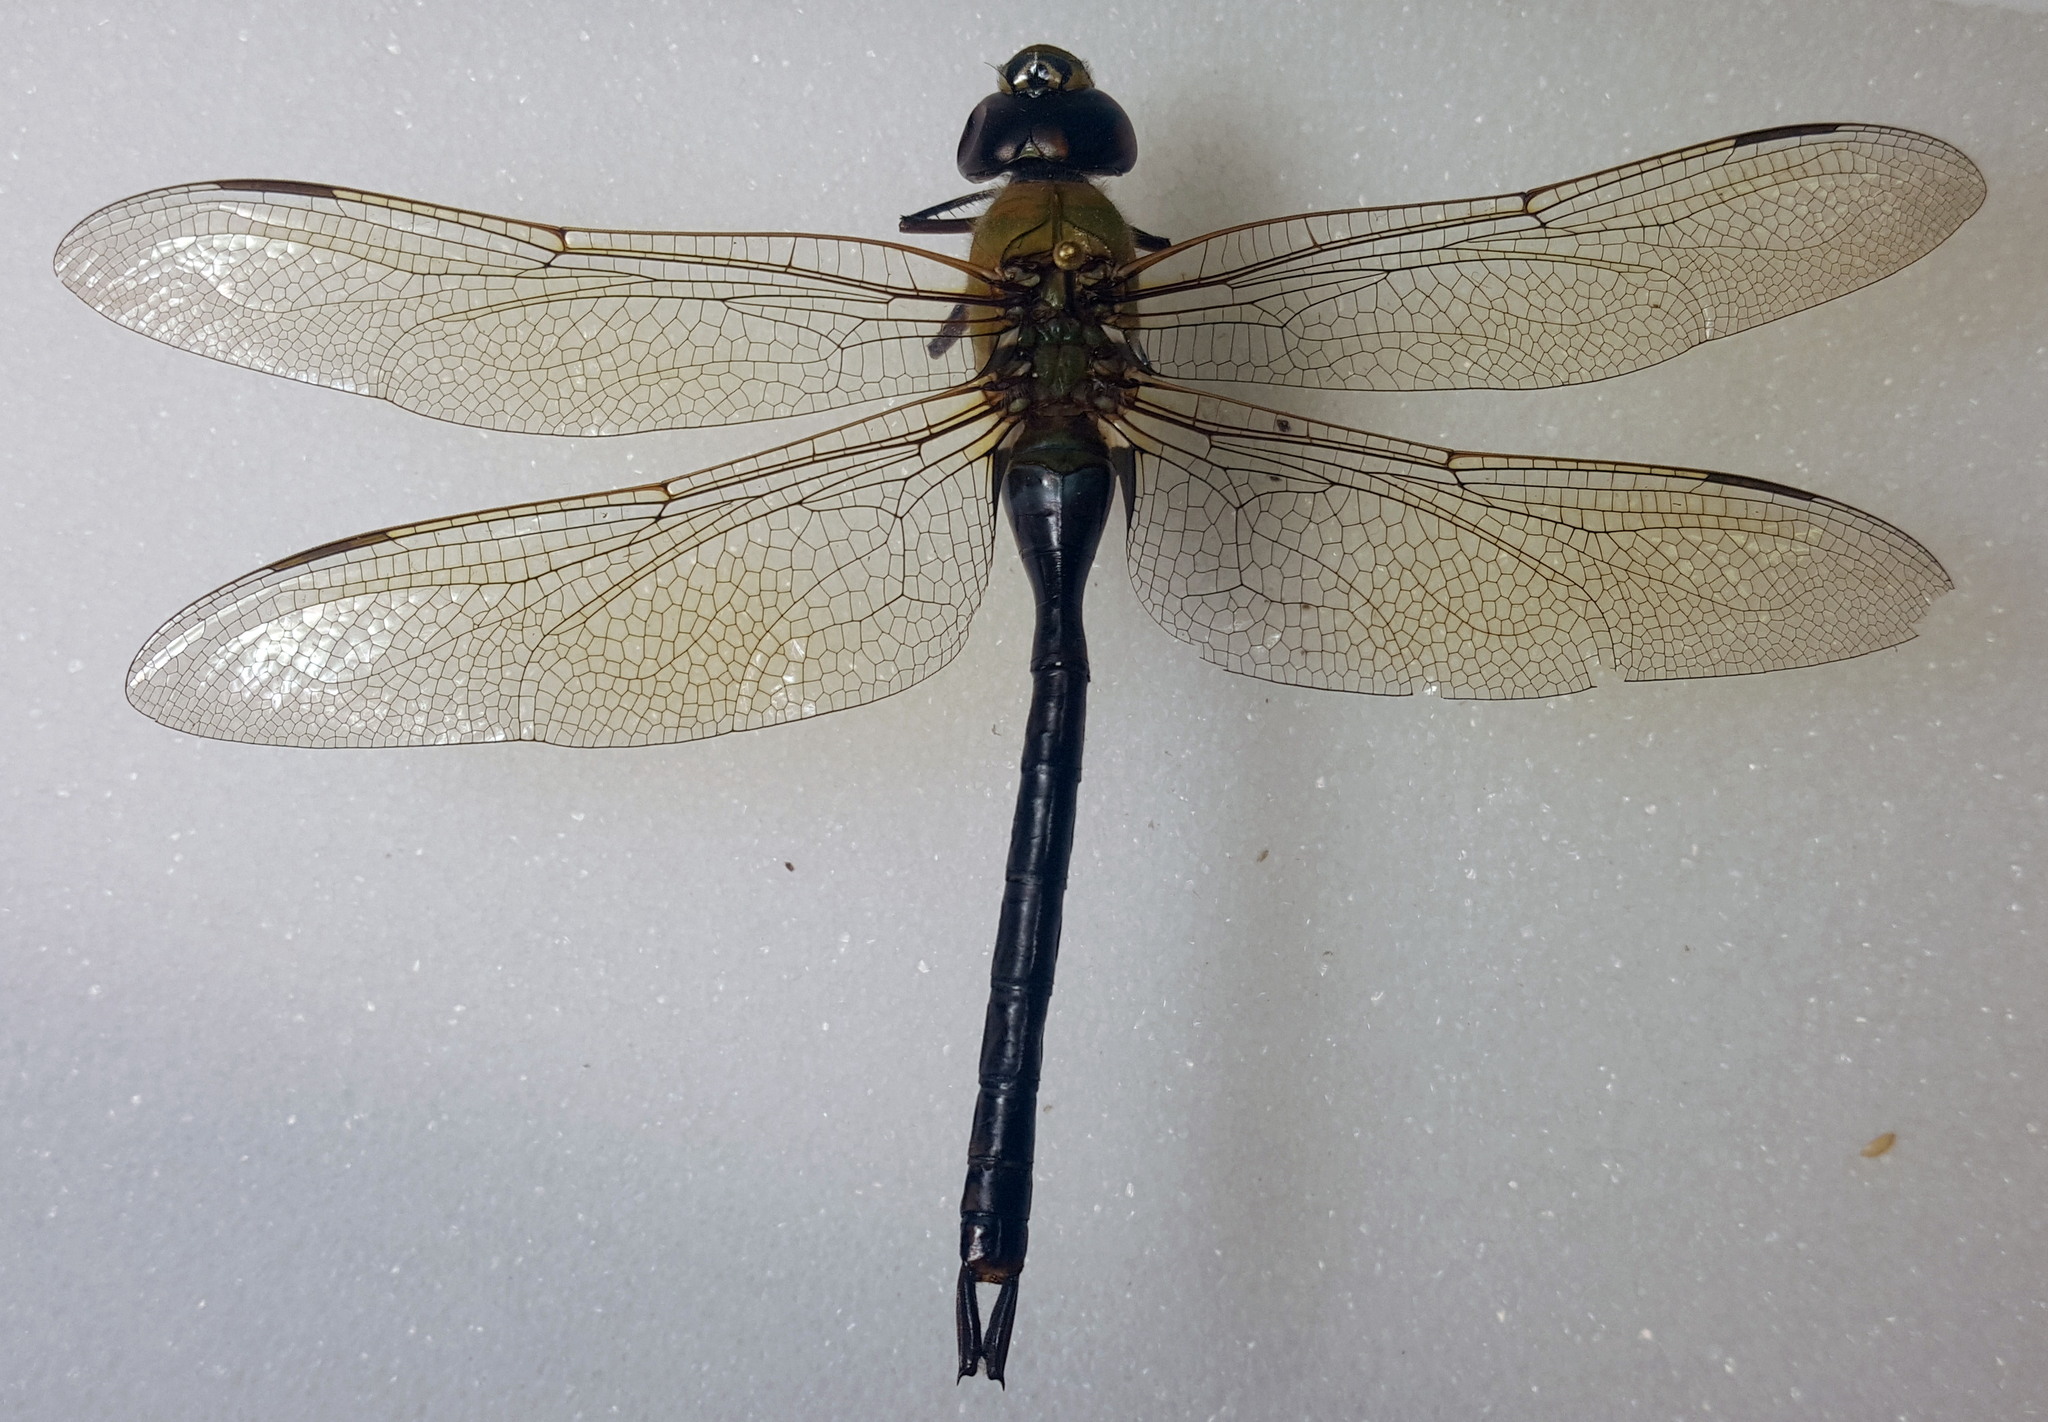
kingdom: Animalia
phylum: Arthropoda
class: Insecta
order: Odonata
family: Aeshnidae
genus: Anax
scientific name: Anax junius
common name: Common green darner
